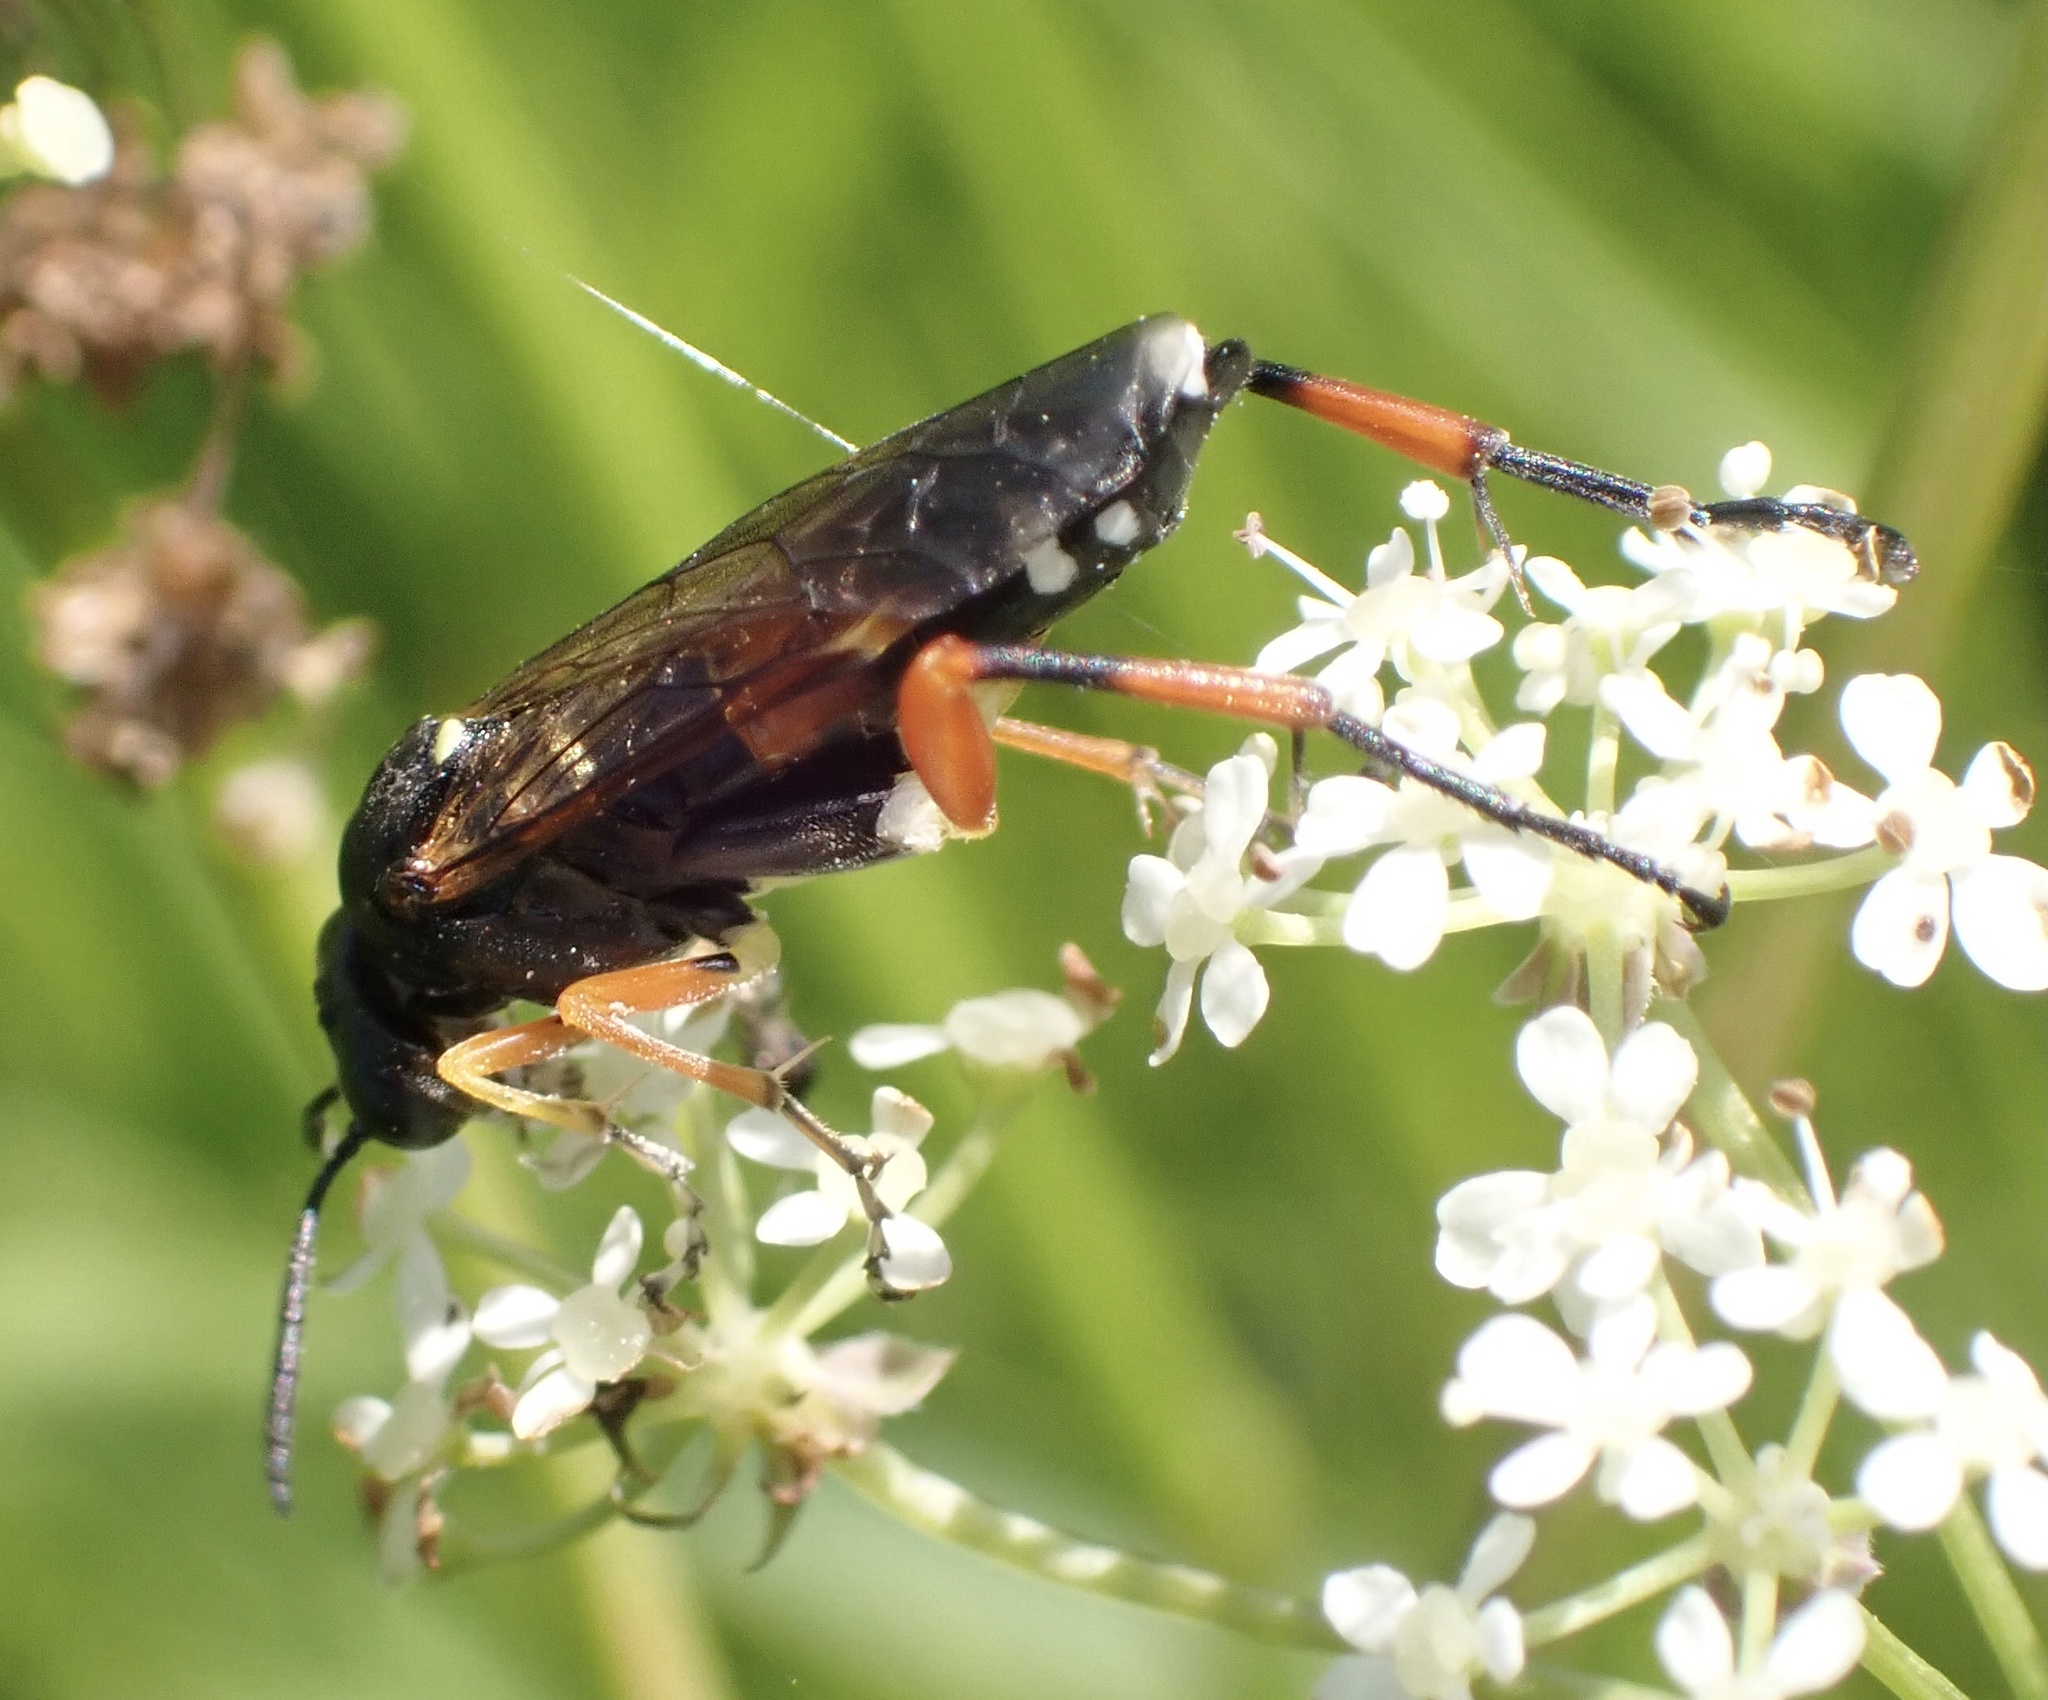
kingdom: Animalia
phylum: Arthropoda
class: Insecta
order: Hymenoptera
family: Tenthredinidae
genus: Macrophya
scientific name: Macrophya rufipes
